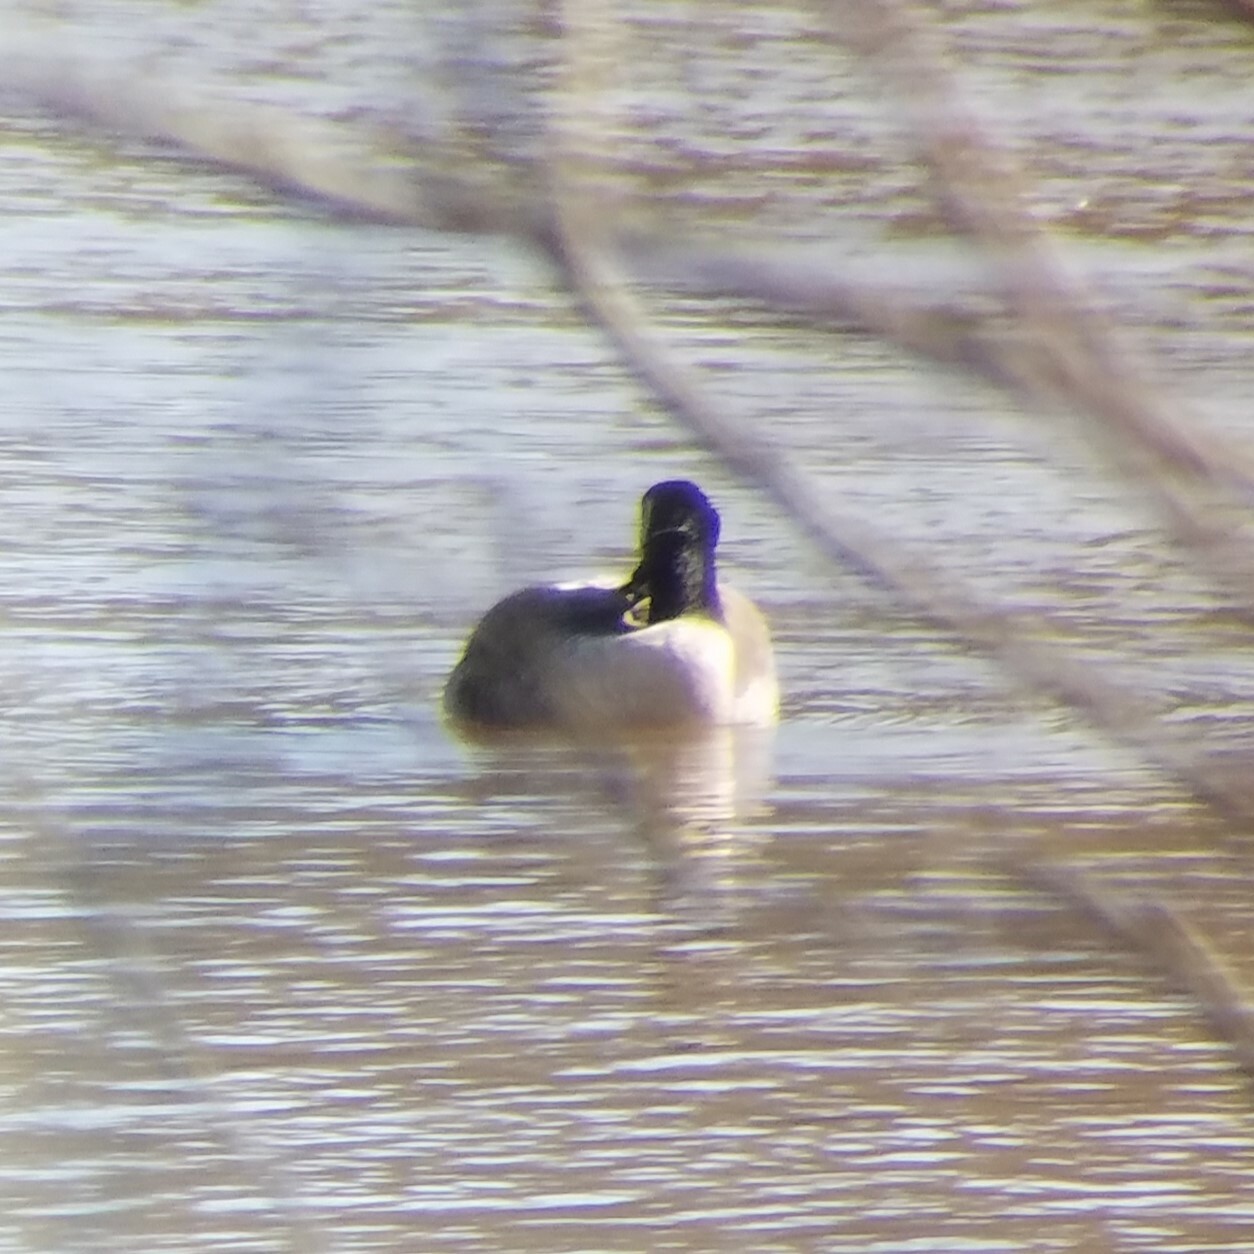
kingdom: Animalia
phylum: Chordata
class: Aves
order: Anseriformes
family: Anatidae
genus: Branta
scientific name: Branta canadensis
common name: Canada goose
